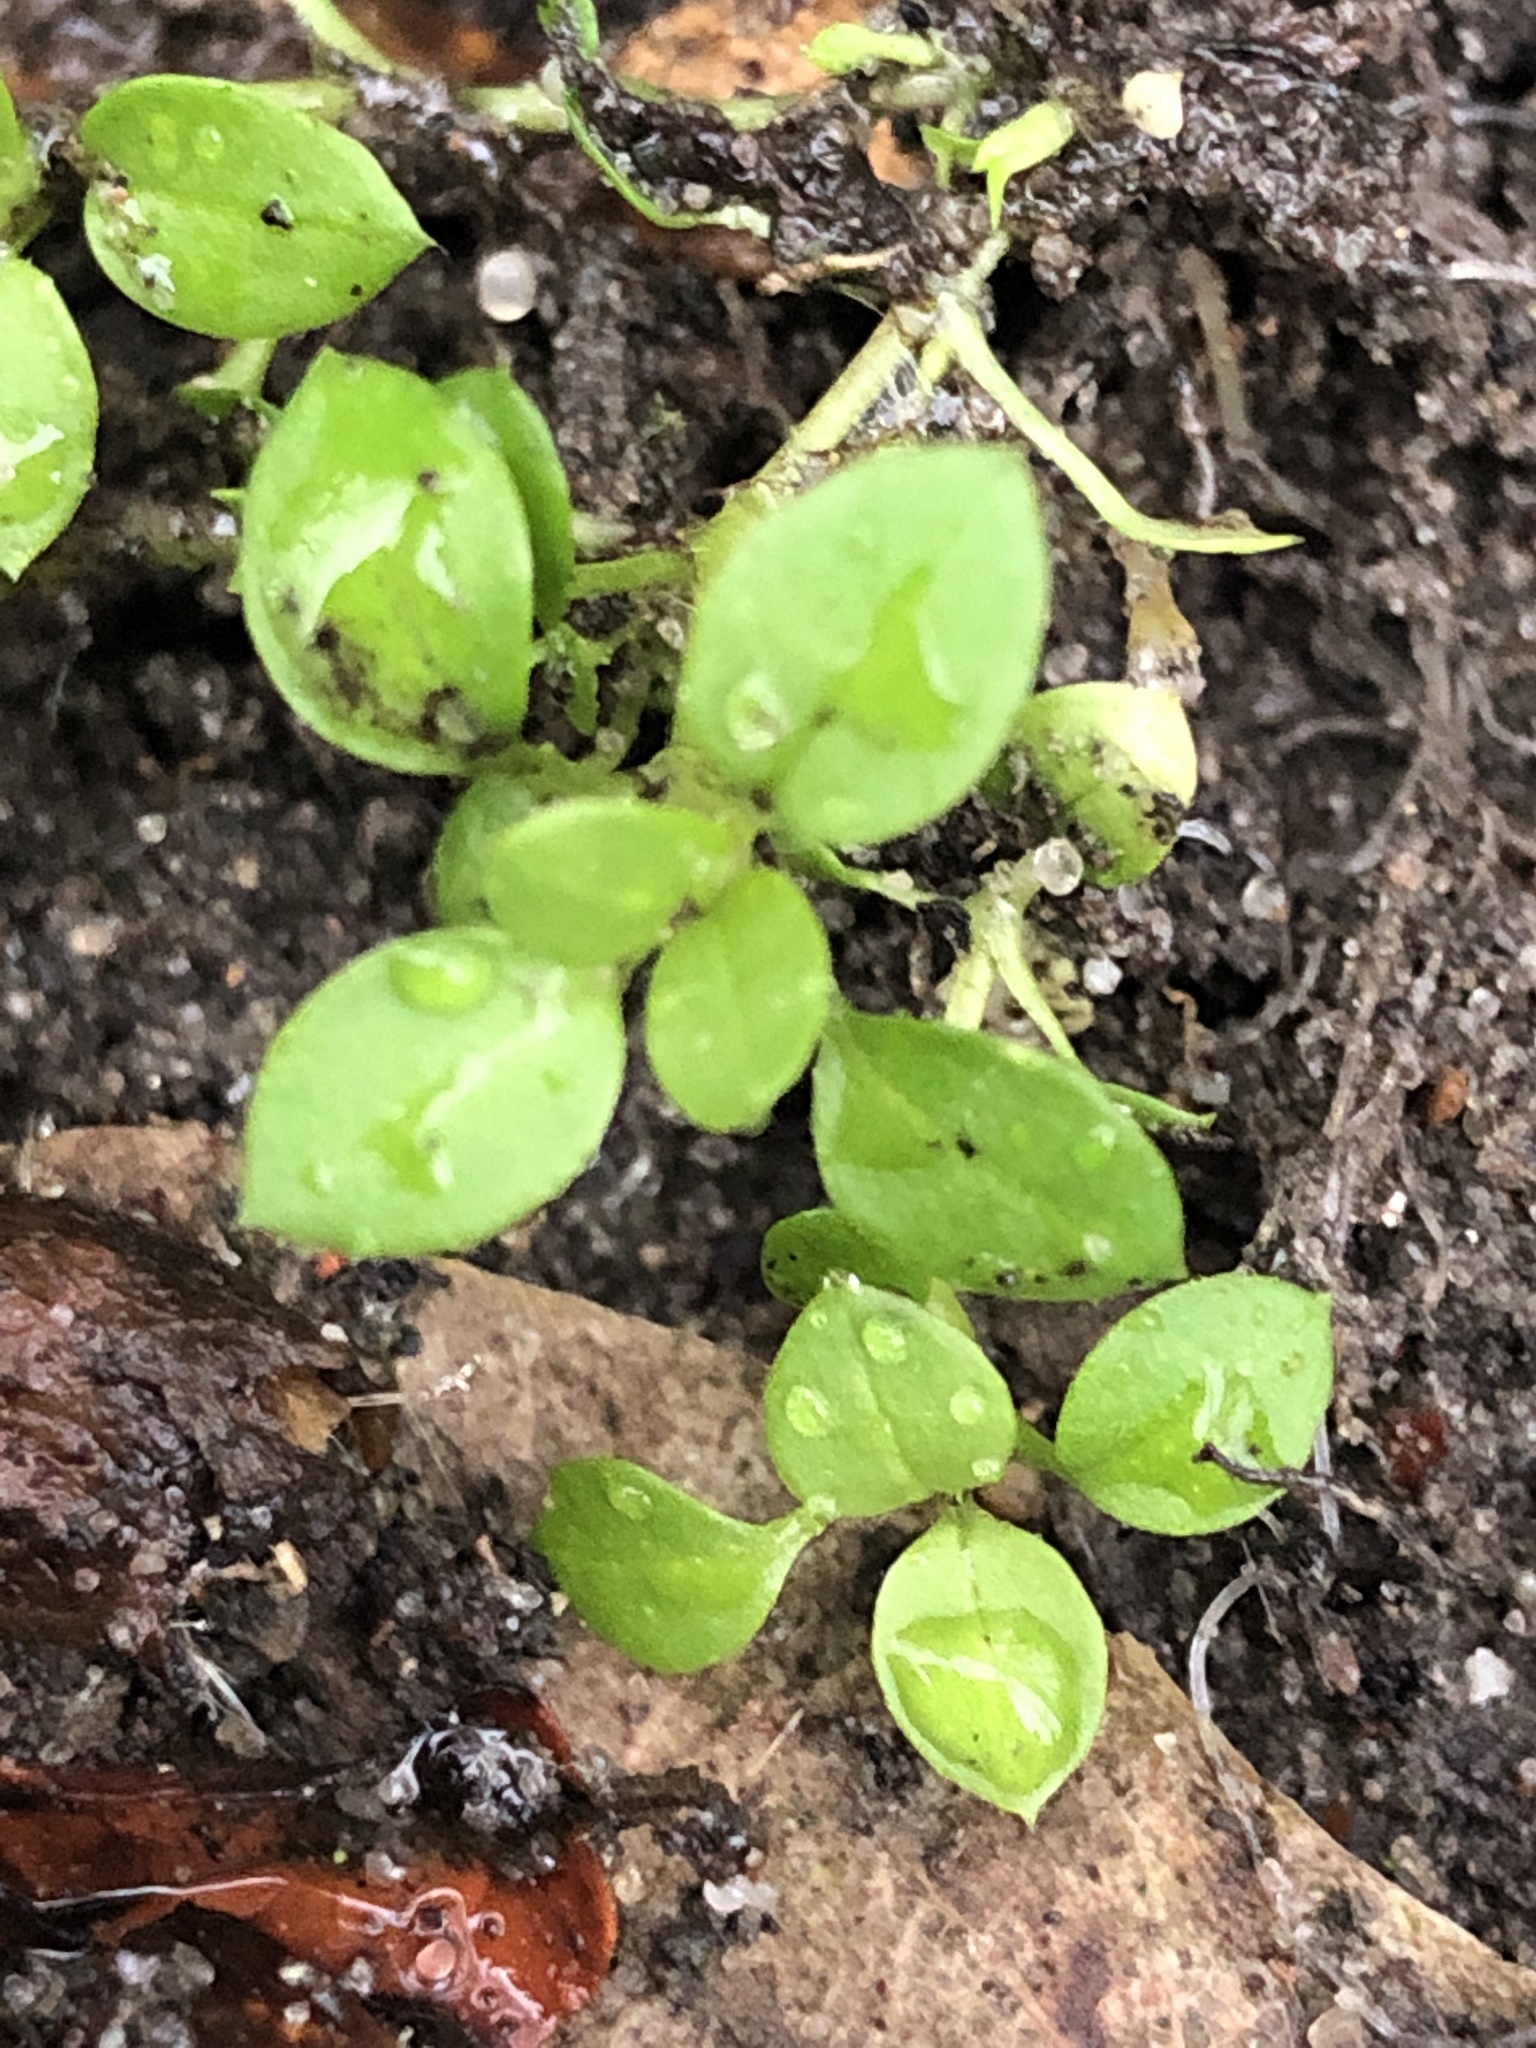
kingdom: Plantae
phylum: Tracheophyta
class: Magnoliopsida
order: Caryophyllales
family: Caryophyllaceae
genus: Stellaria
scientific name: Stellaria media
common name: Common chickweed
